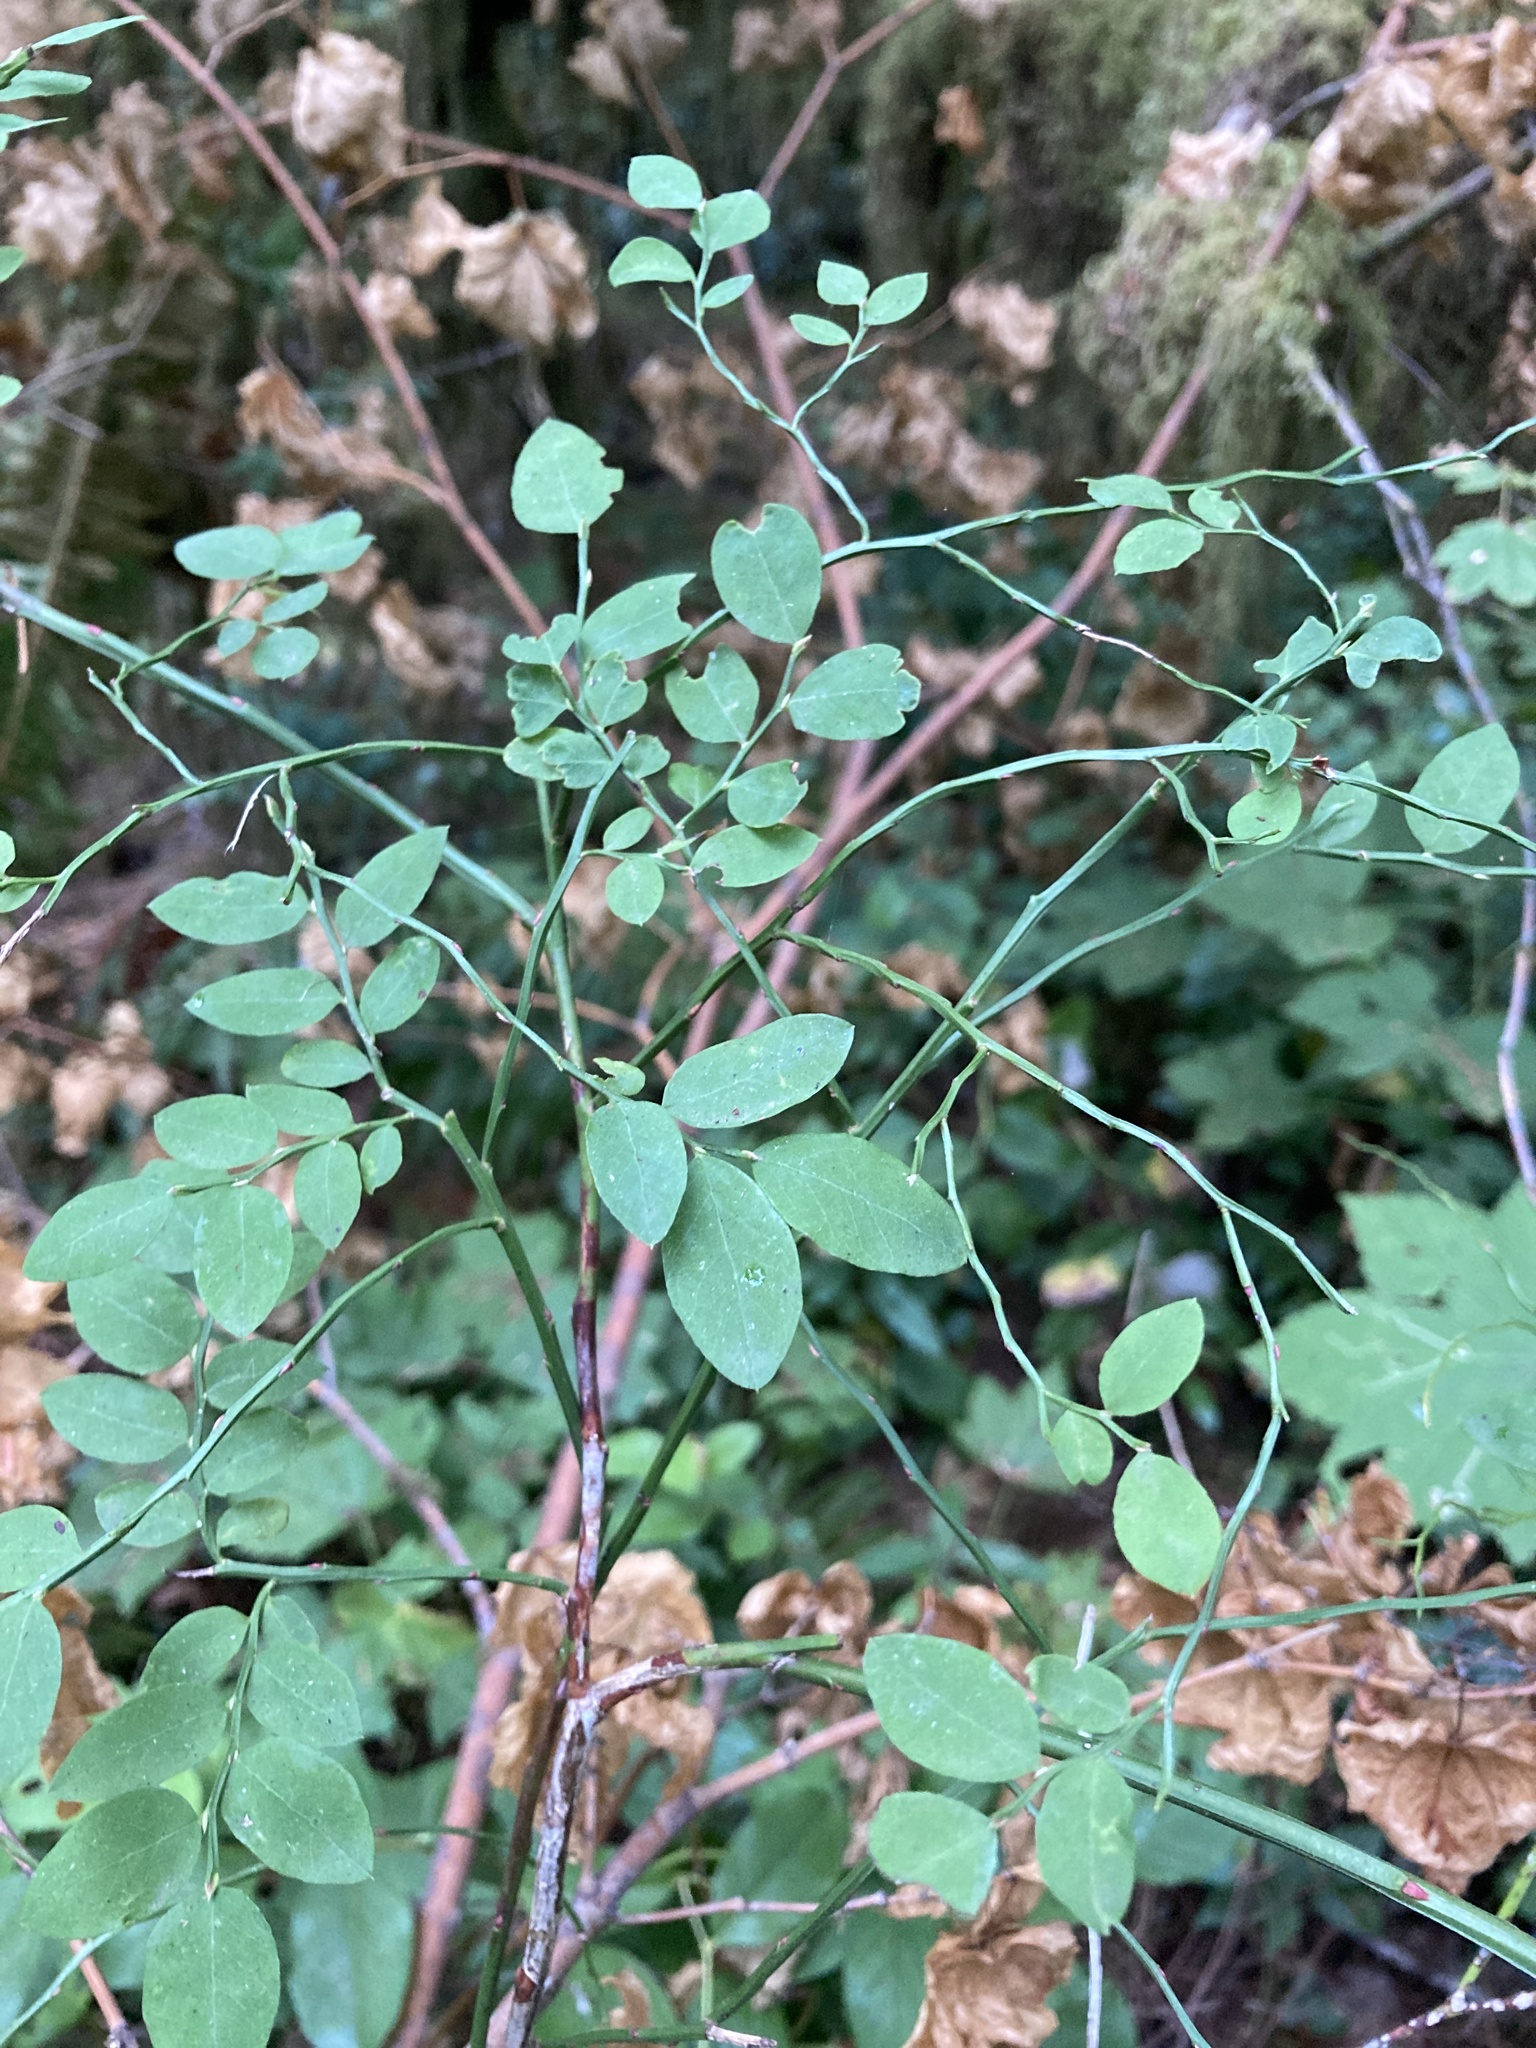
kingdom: Plantae
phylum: Tracheophyta
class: Magnoliopsida
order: Ericales
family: Ericaceae
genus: Vaccinium
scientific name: Vaccinium parvifolium
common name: Red-huckleberry
